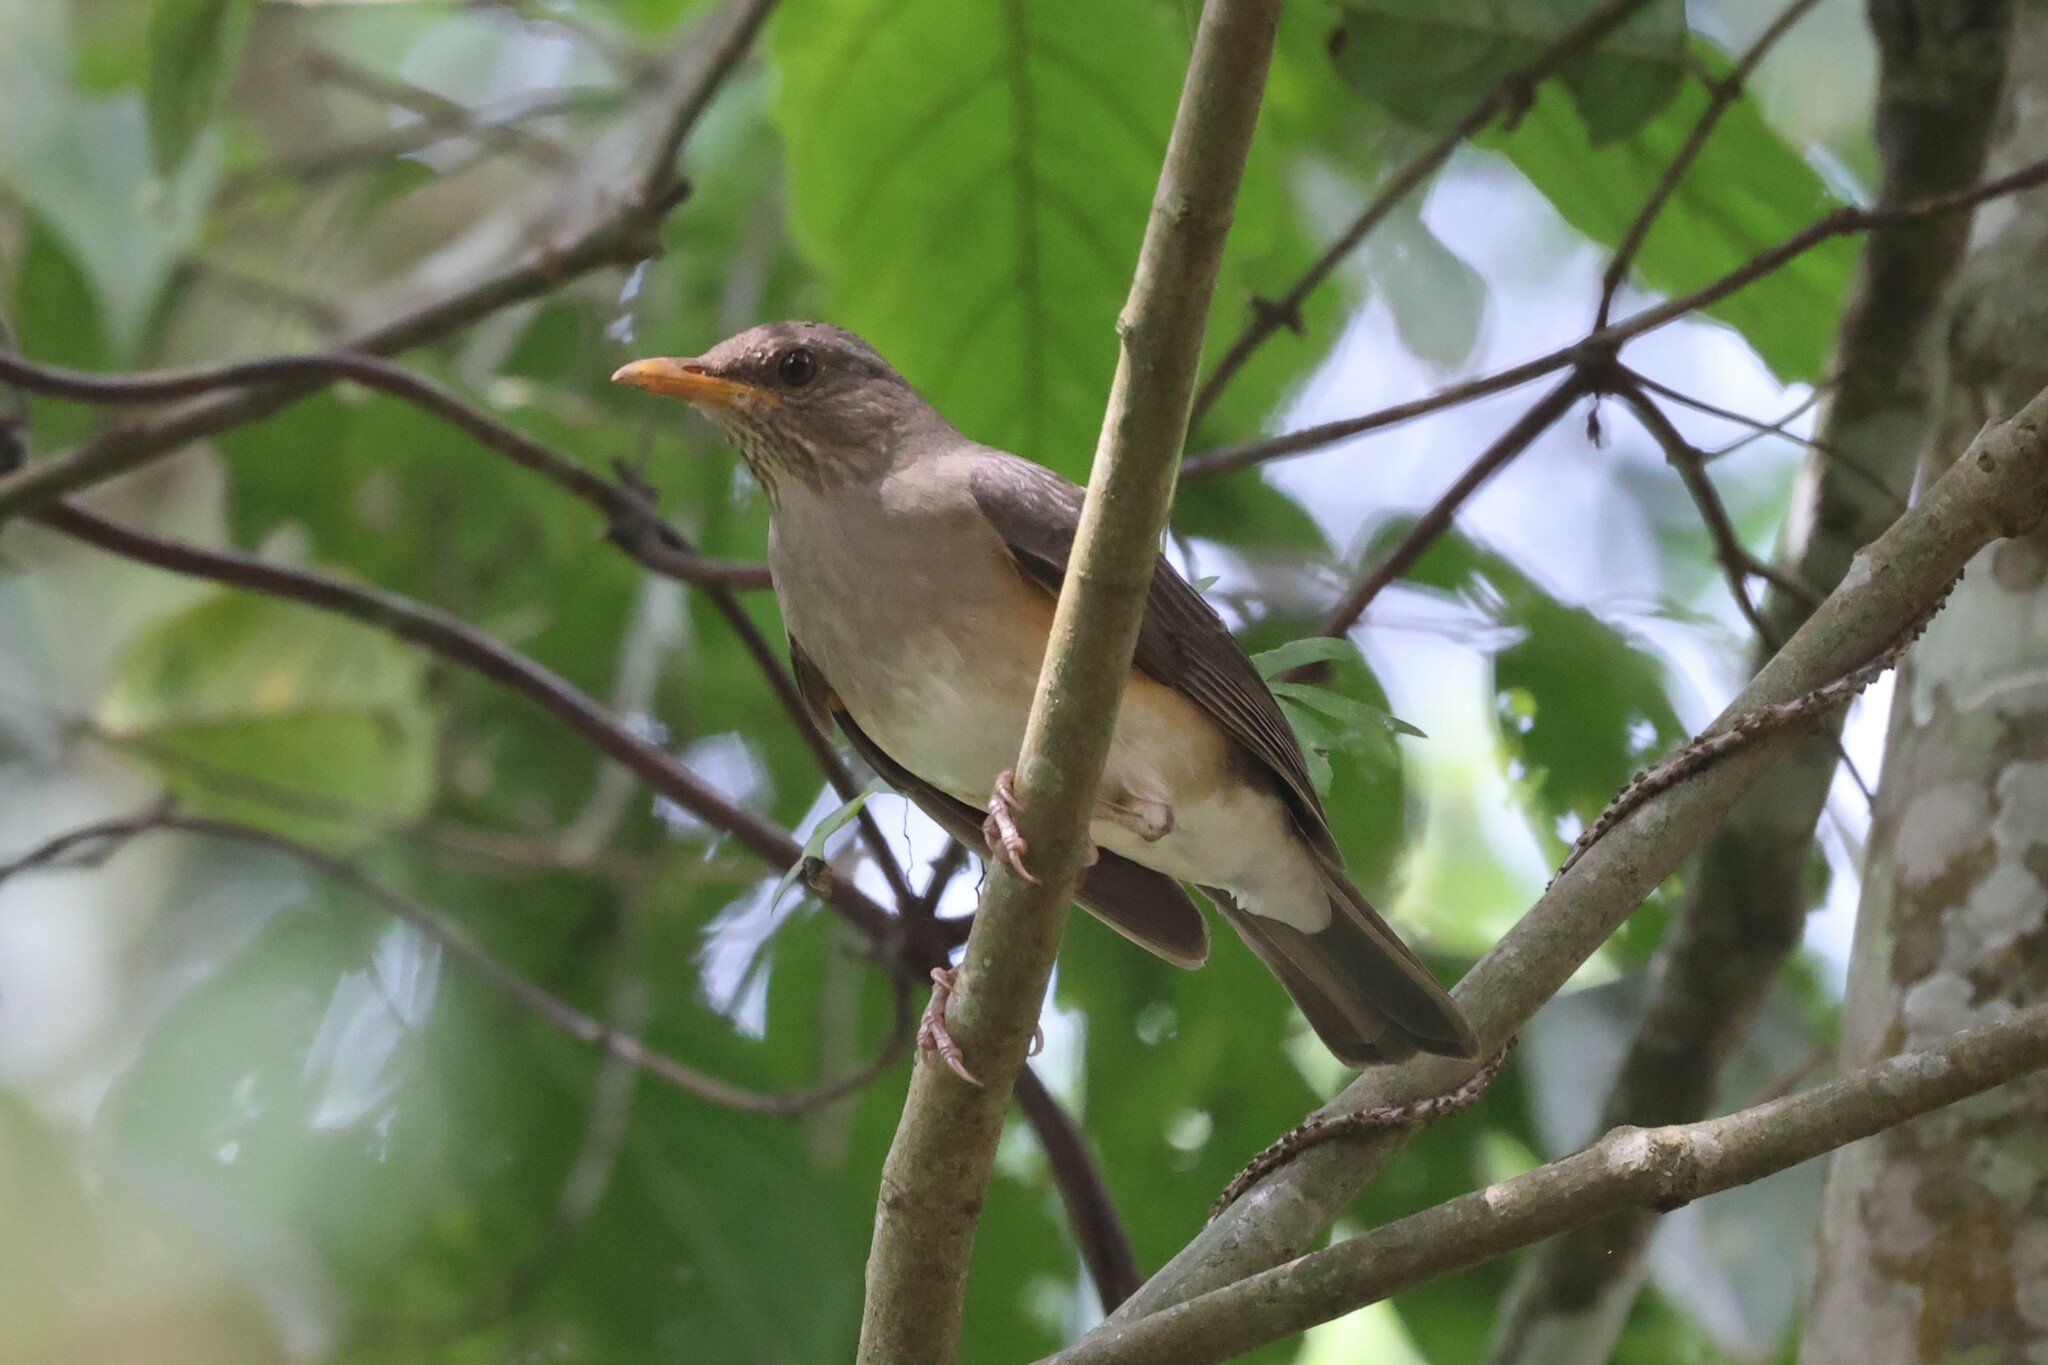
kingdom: Animalia
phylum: Chordata
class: Aves
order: Passeriformes
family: Turdidae
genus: Turdus
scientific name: Turdus pelios
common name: African thrush
